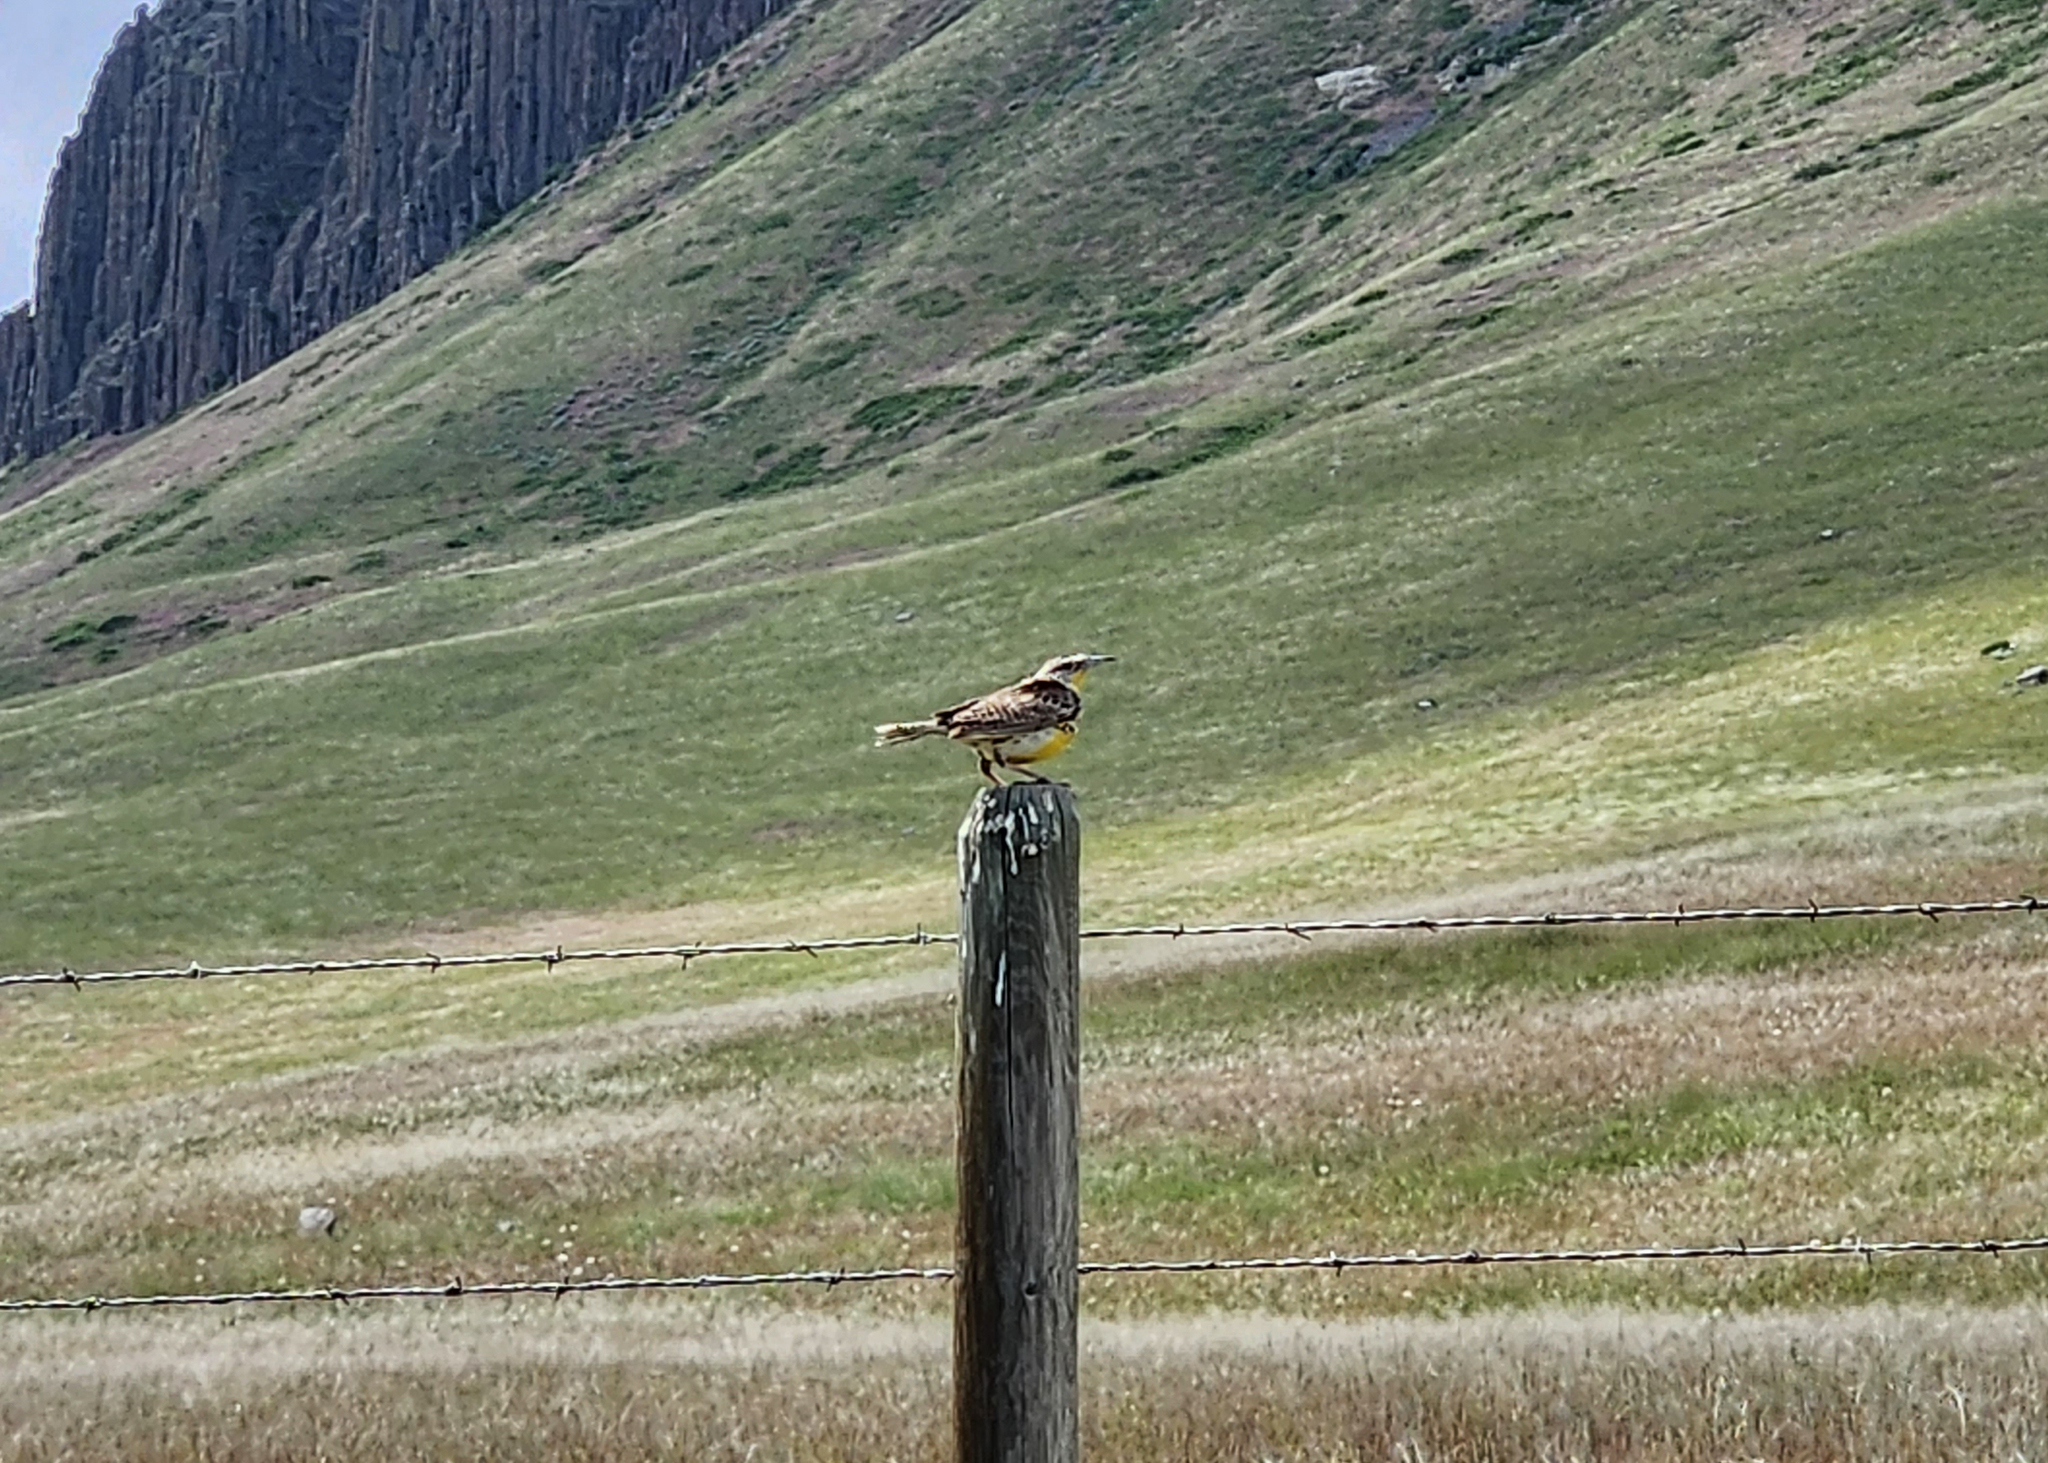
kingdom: Animalia
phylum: Chordata
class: Aves
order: Passeriformes
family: Icteridae
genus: Sturnella
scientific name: Sturnella neglecta
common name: Western meadowlark
